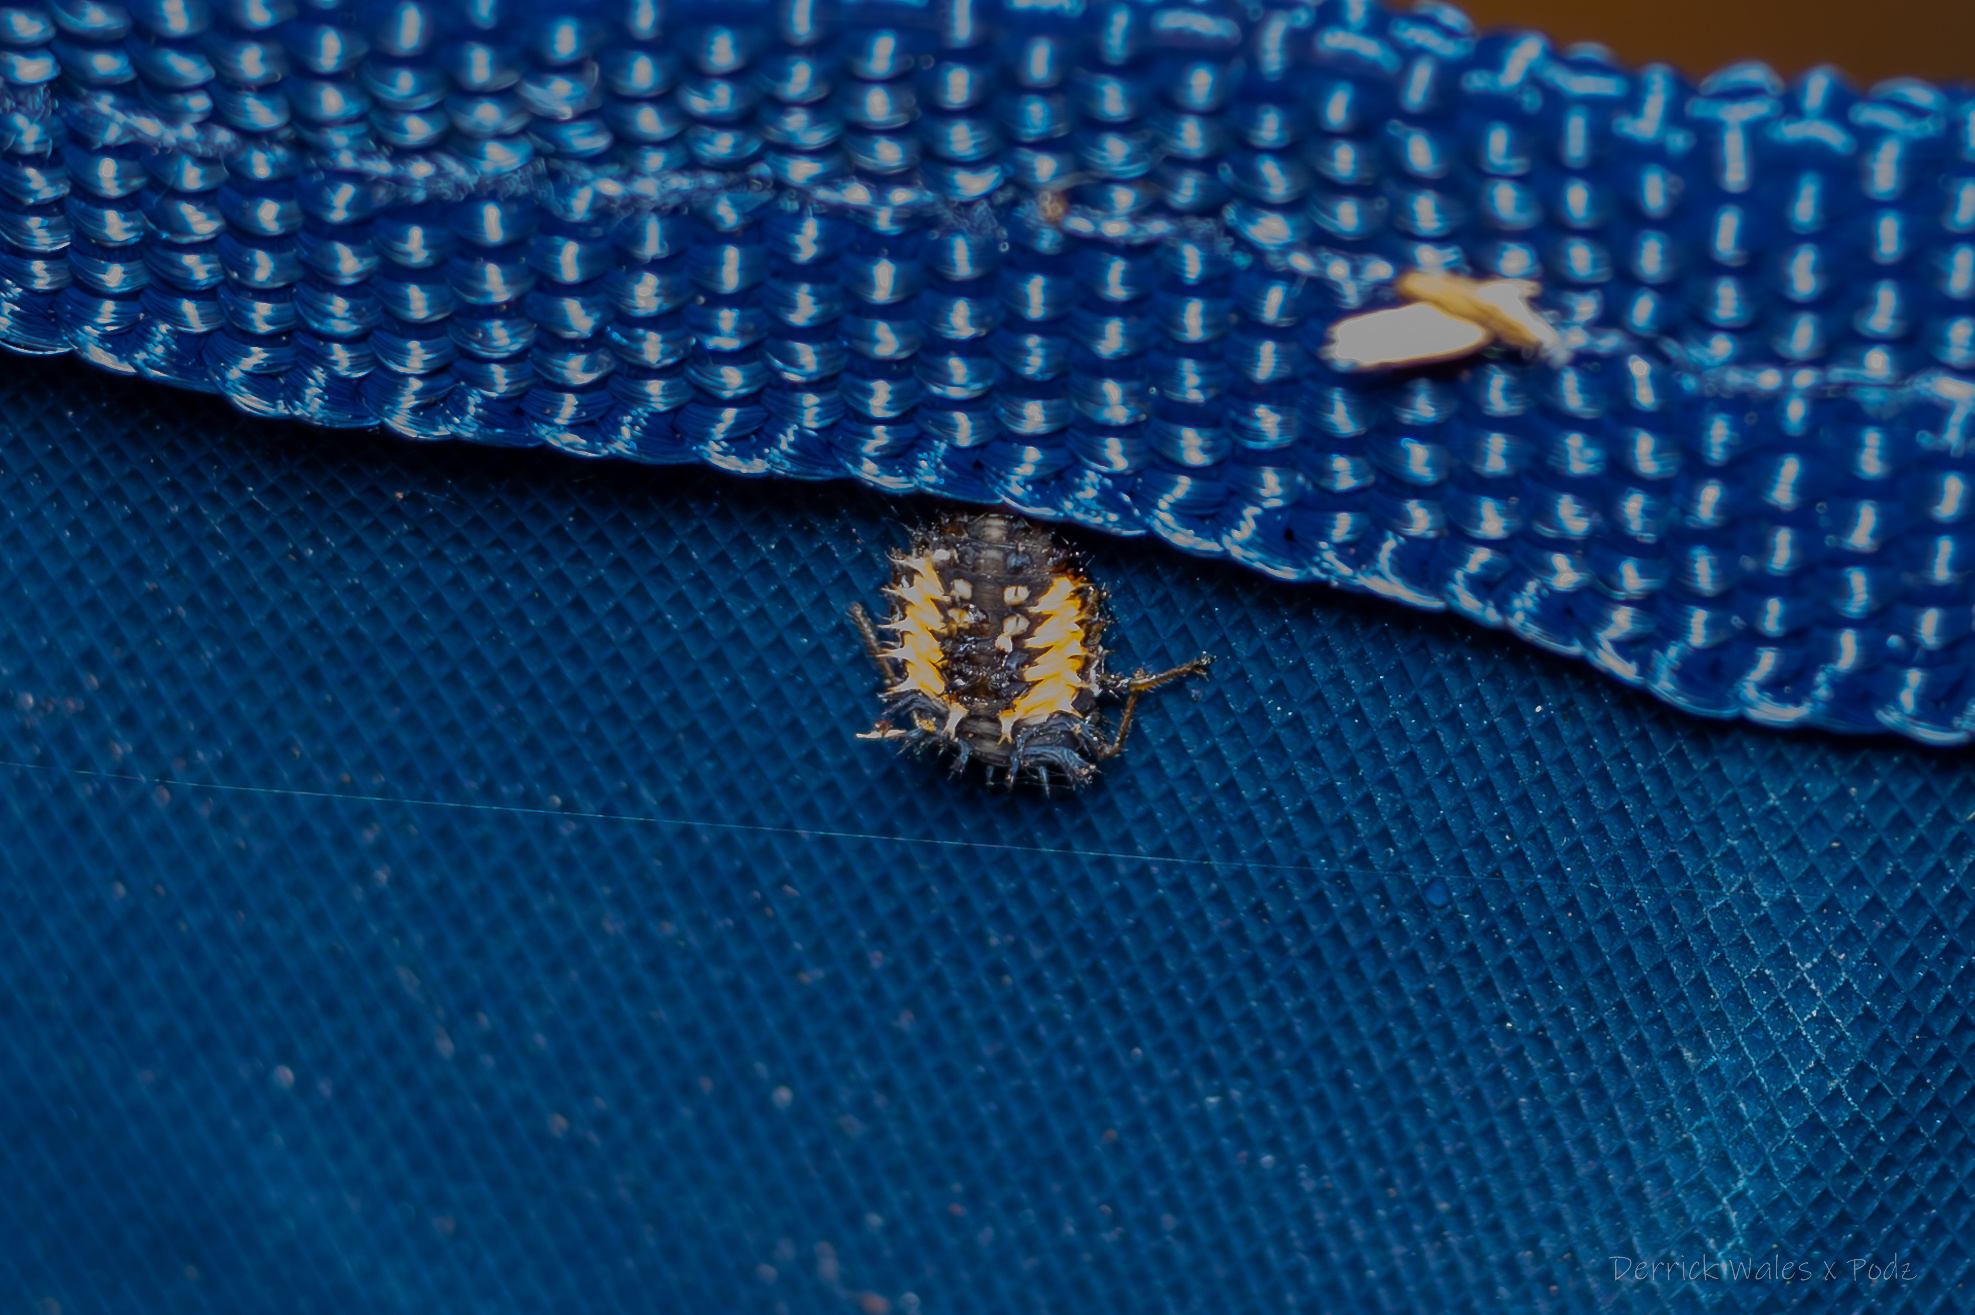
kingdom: Animalia
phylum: Arthropoda
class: Insecta
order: Coleoptera
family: Coccinellidae
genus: Harmonia
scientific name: Harmonia axyridis
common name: Harlequin ladybird
